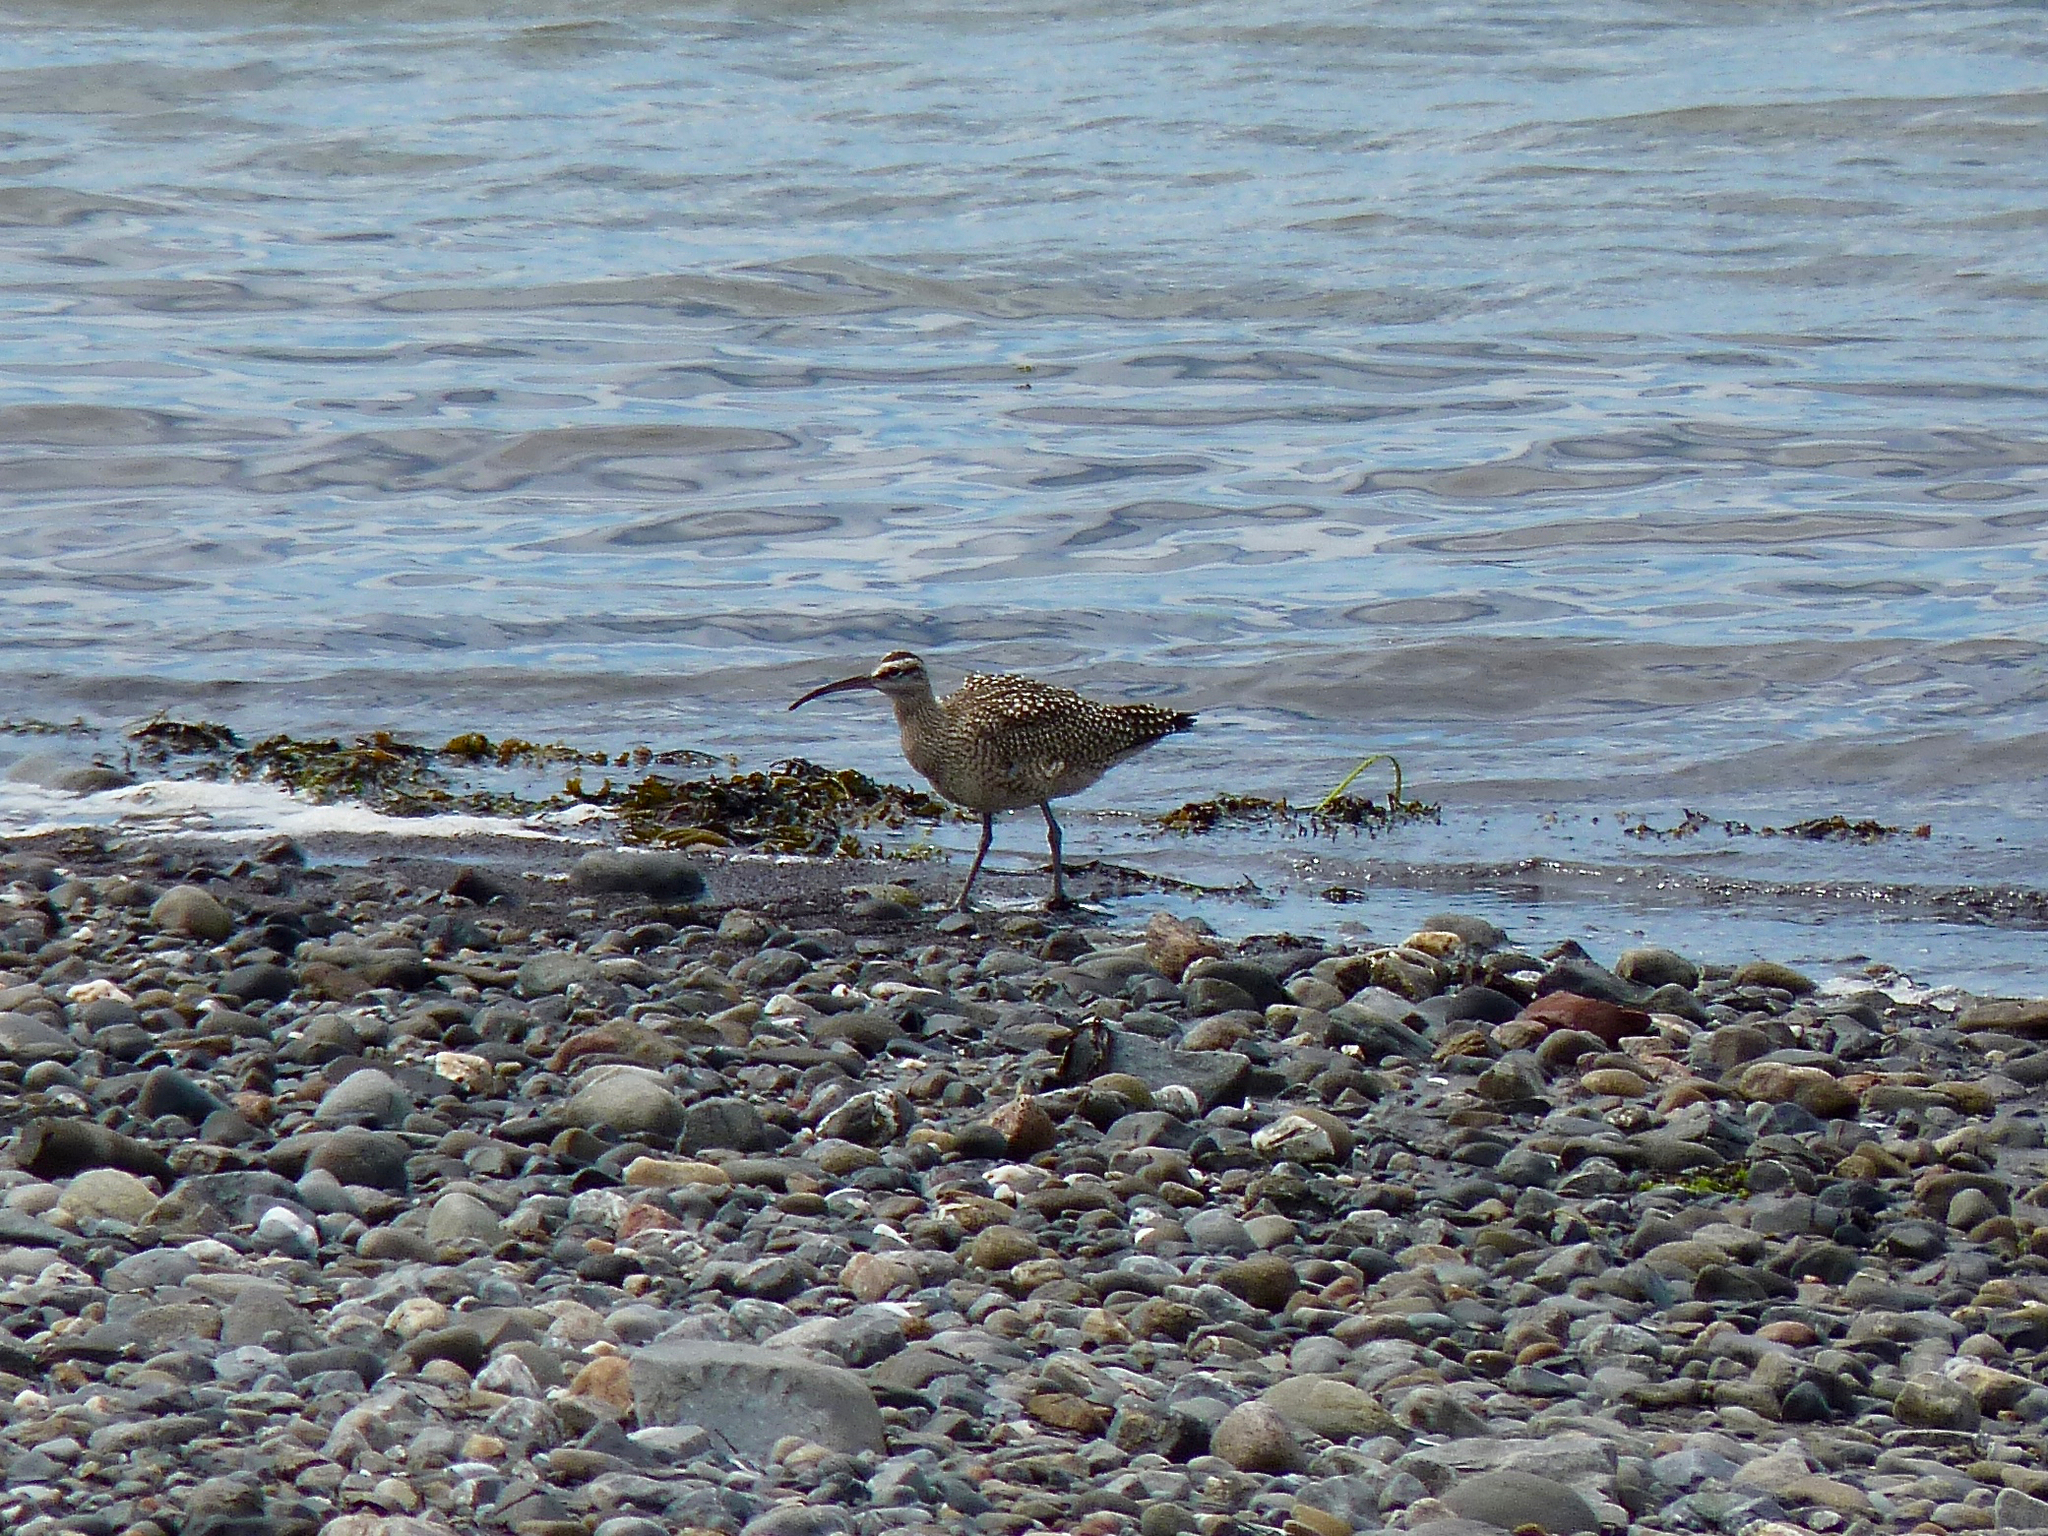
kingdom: Animalia
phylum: Chordata
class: Aves
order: Charadriiformes
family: Scolopacidae
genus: Numenius
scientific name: Numenius phaeopus
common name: Whimbrel
